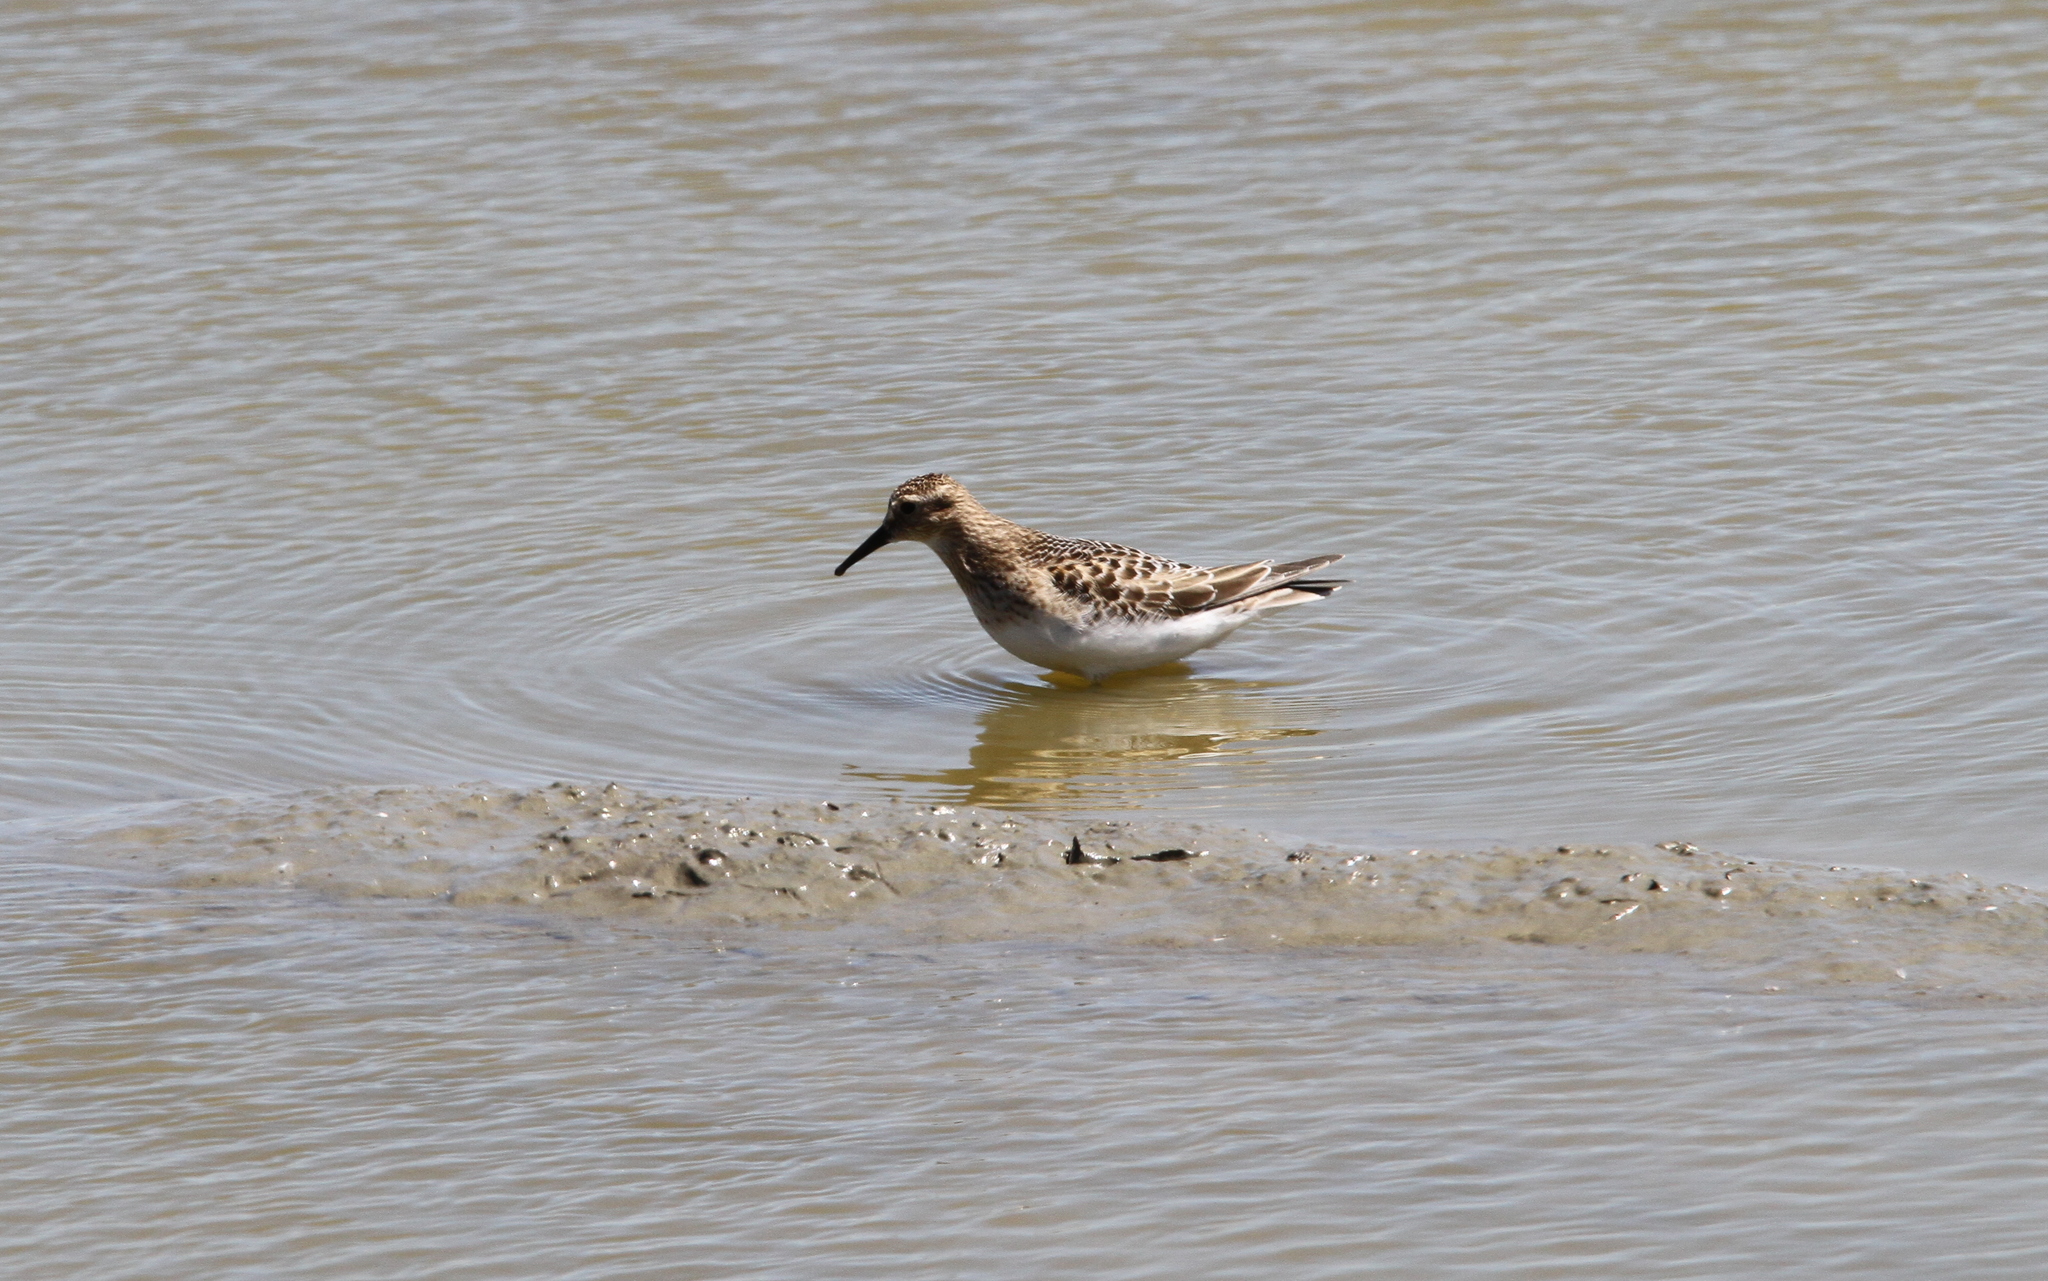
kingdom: Animalia
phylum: Chordata
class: Aves
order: Charadriiformes
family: Scolopacidae
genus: Calidris
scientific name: Calidris bairdii
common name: Baird's sandpiper
